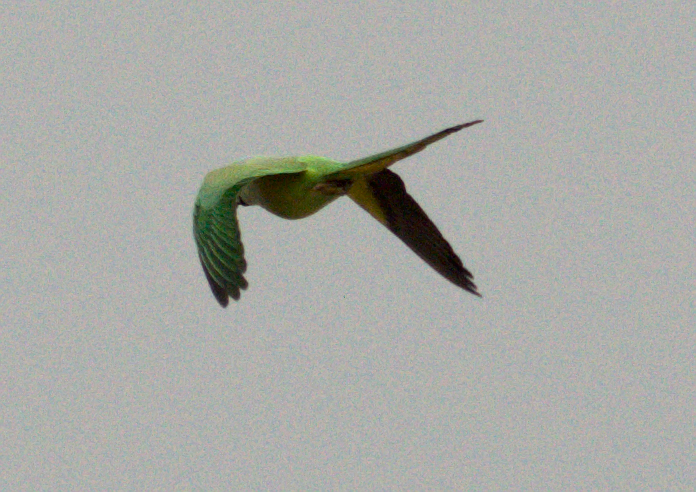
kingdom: Animalia
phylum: Chordata
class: Aves
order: Psittaciformes
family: Psittacidae
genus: Psittacula
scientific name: Psittacula krameri
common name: Rose-ringed parakeet
